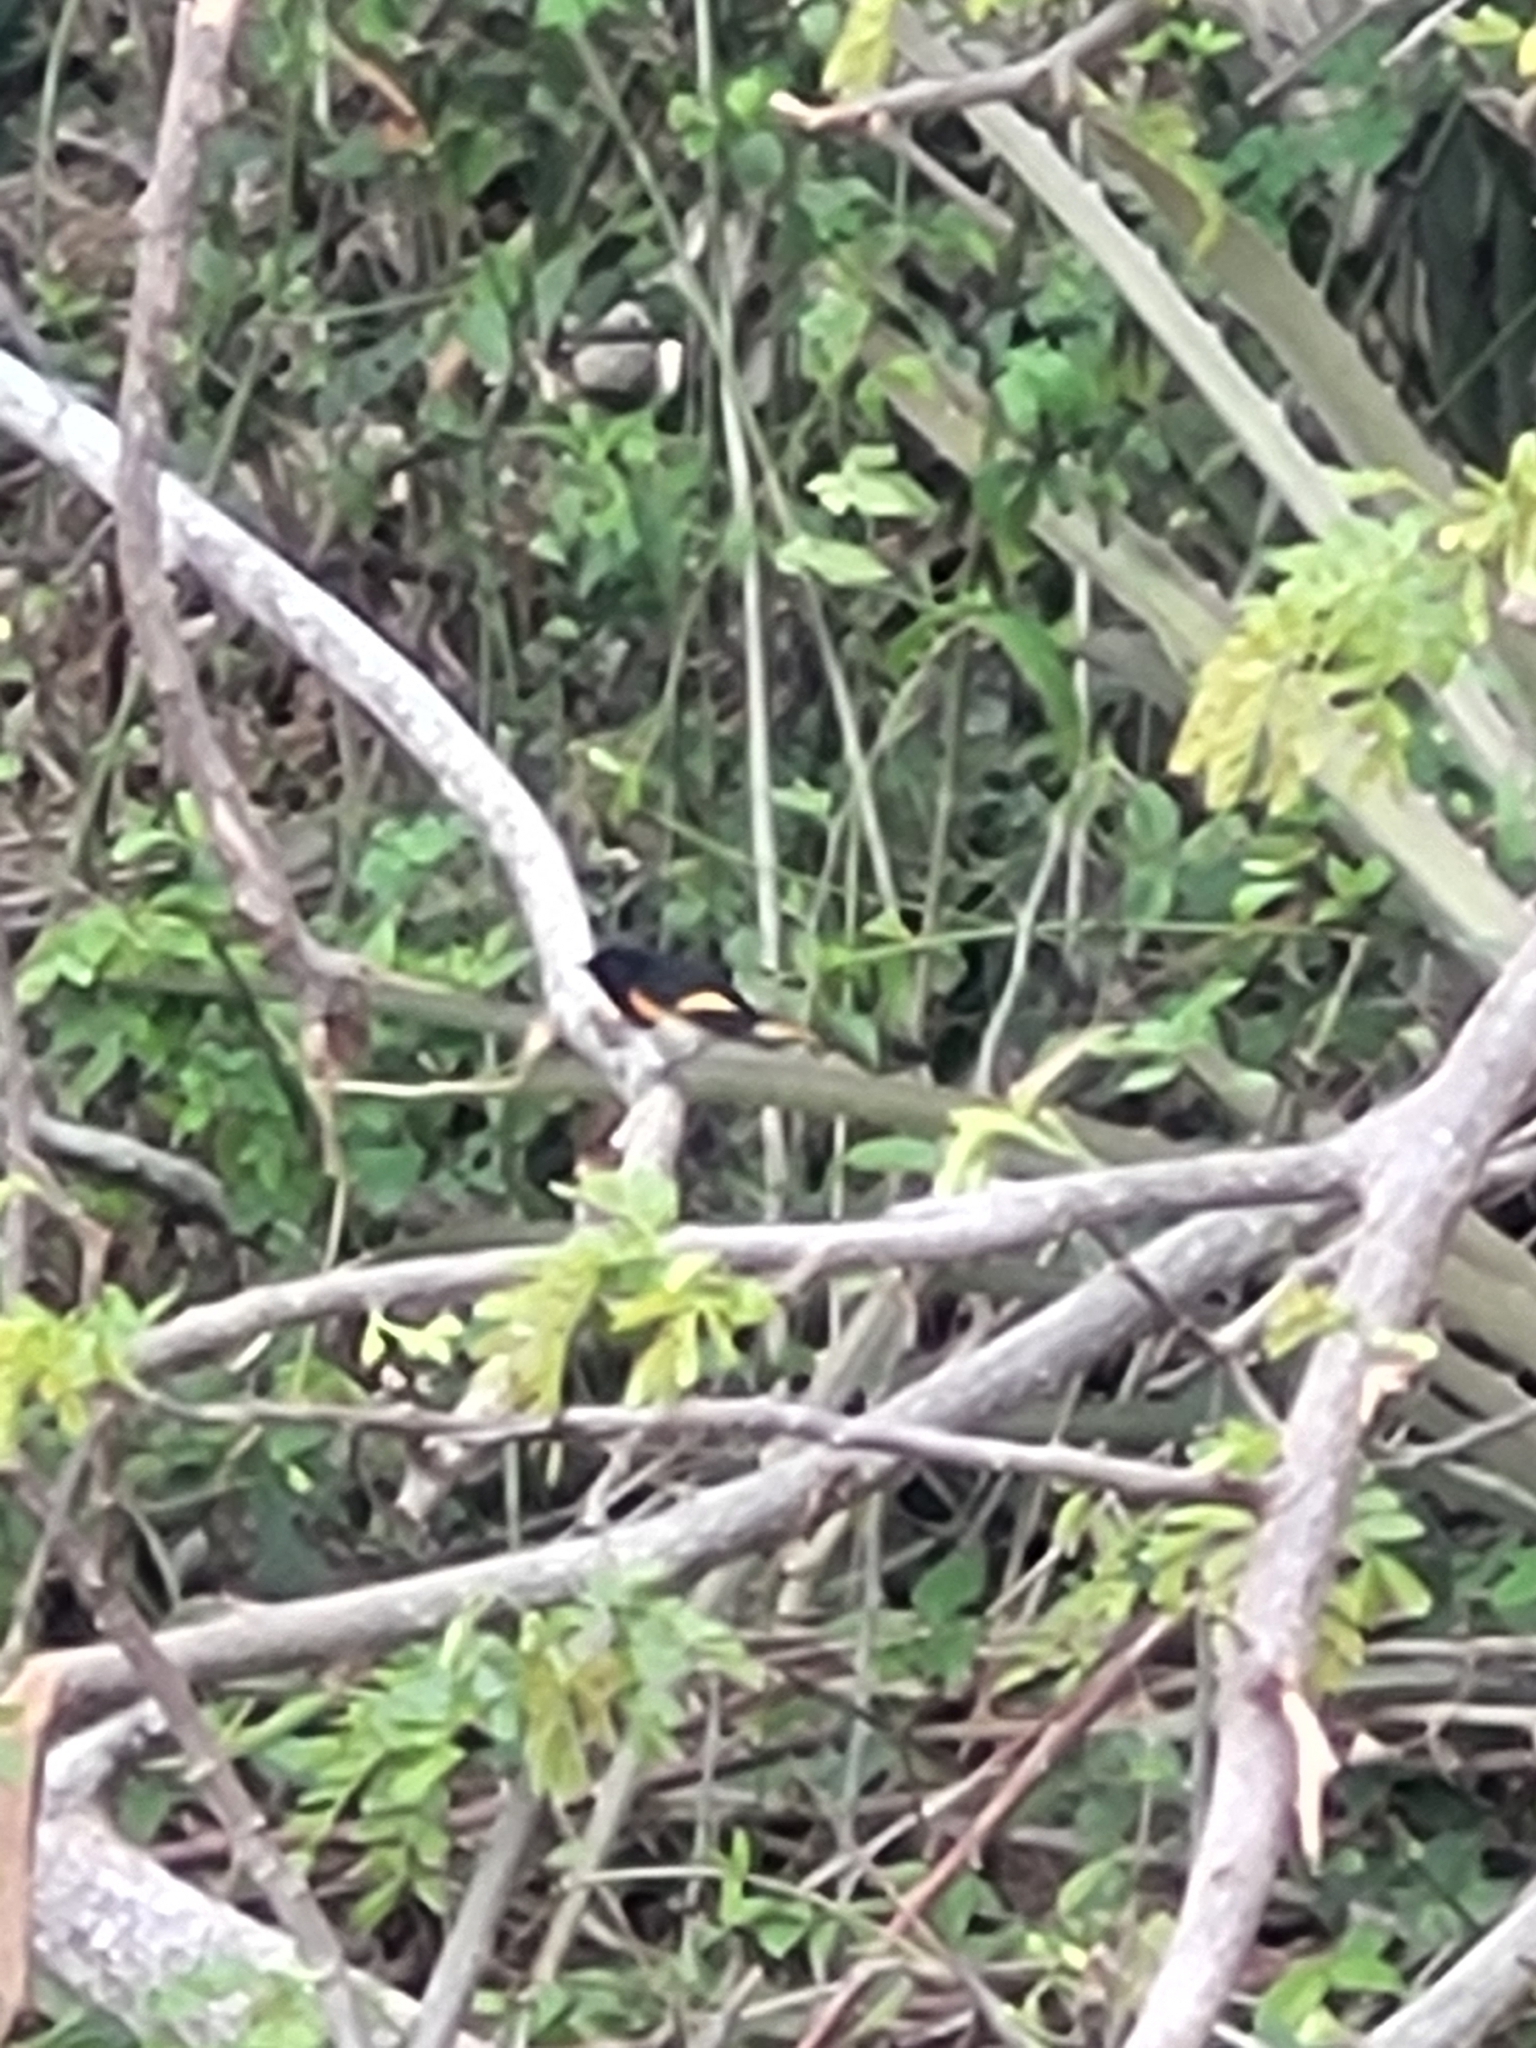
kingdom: Animalia
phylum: Chordata
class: Aves
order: Passeriformes
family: Parulidae
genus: Setophaga
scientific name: Setophaga ruticilla
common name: American redstart
